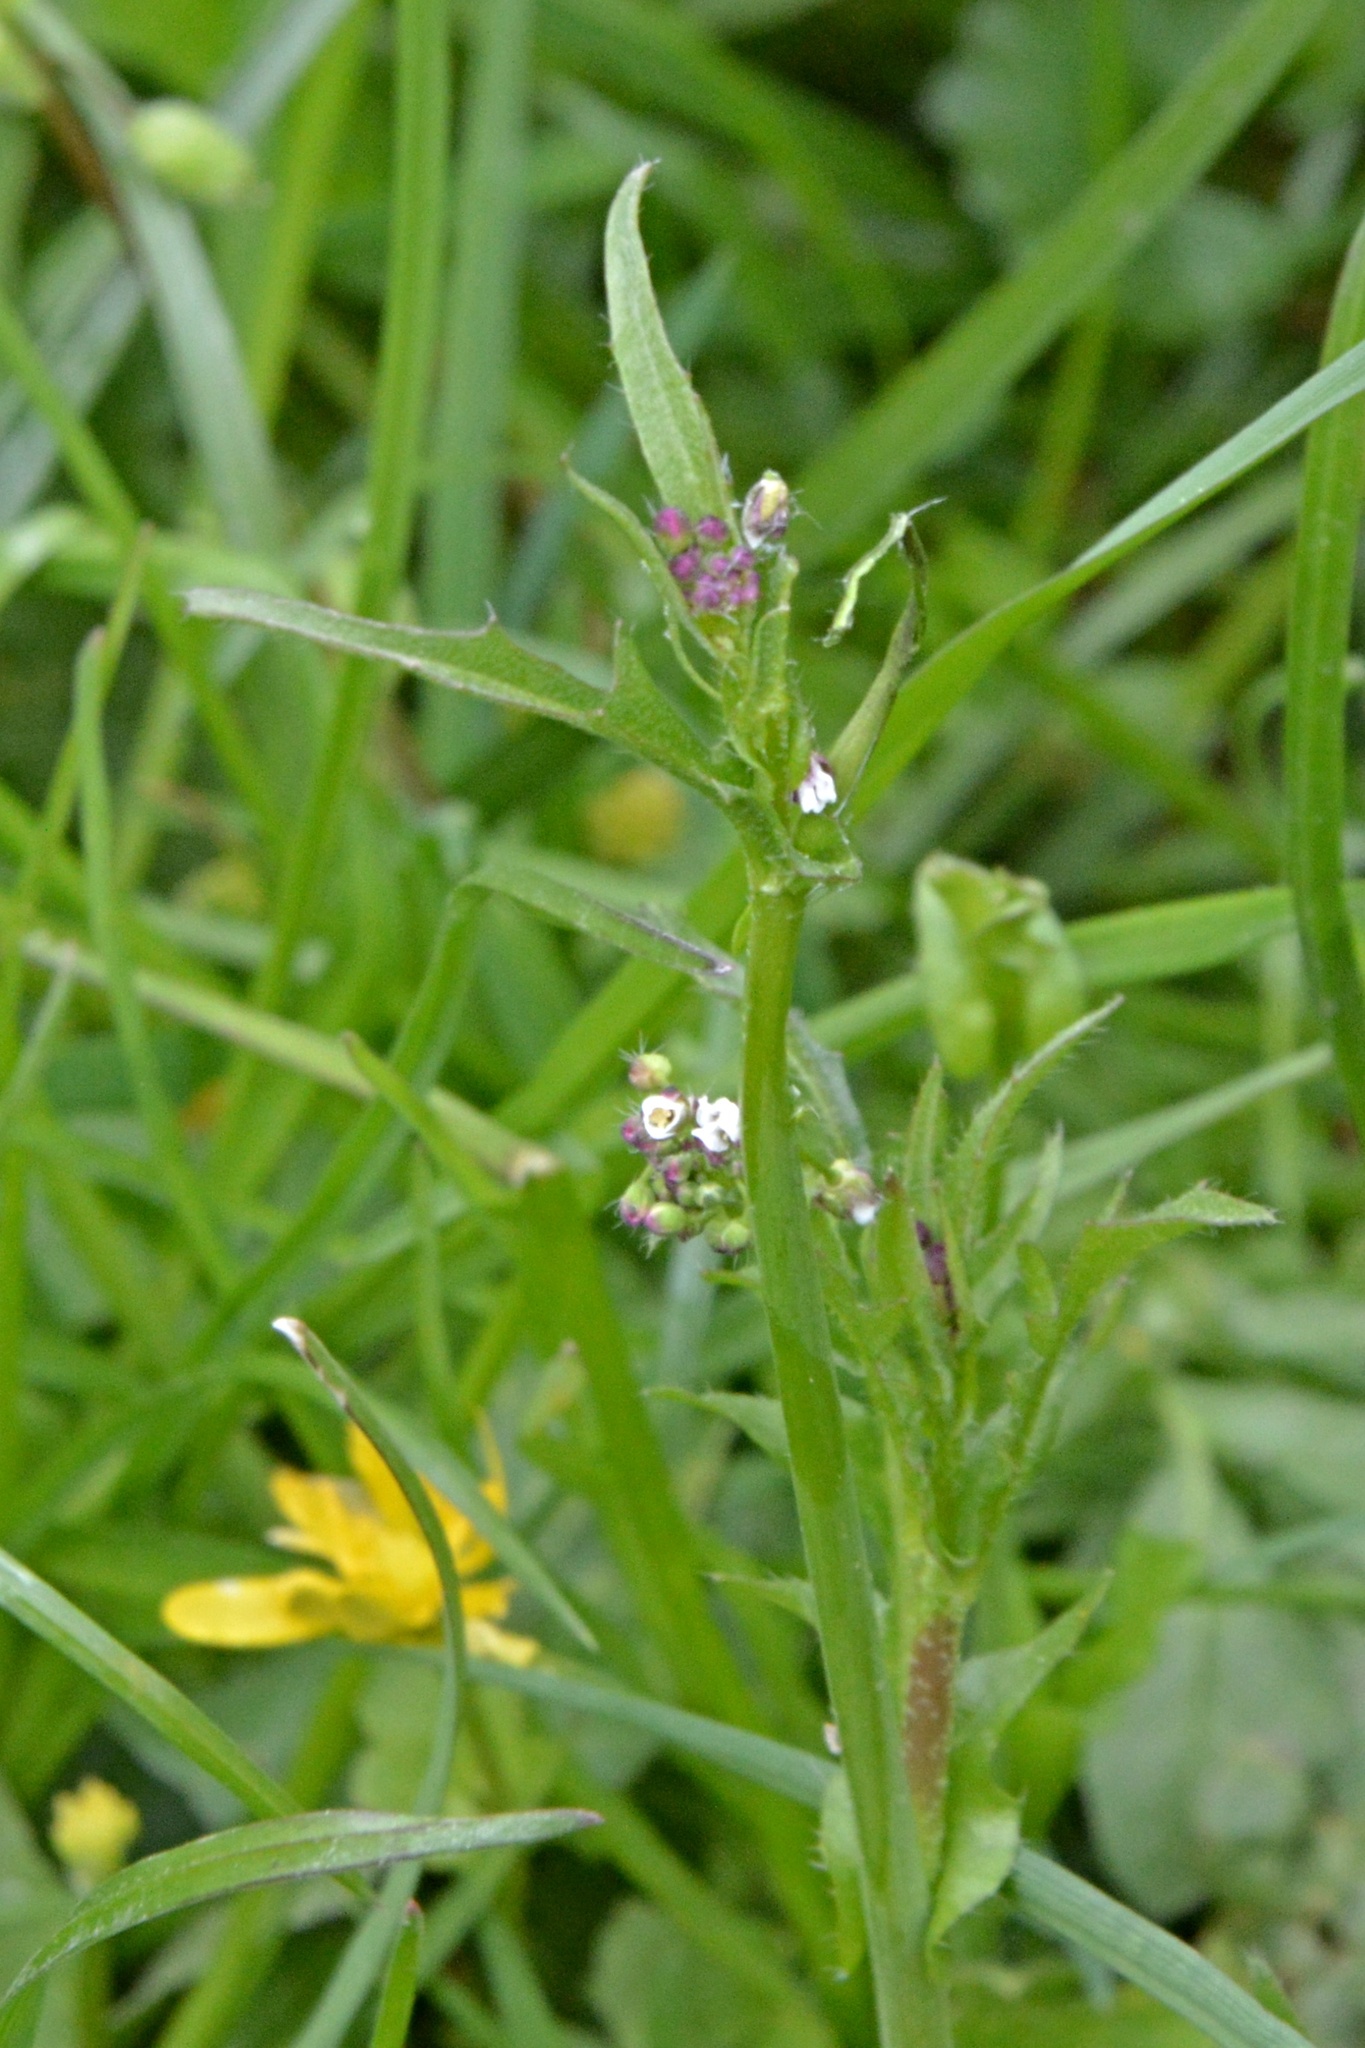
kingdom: Plantae
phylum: Tracheophyta
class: Magnoliopsida
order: Brassicales
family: Brassicaceae
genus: Capsella
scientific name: Capsella bursa-pastoris
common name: Shepherd's purse
